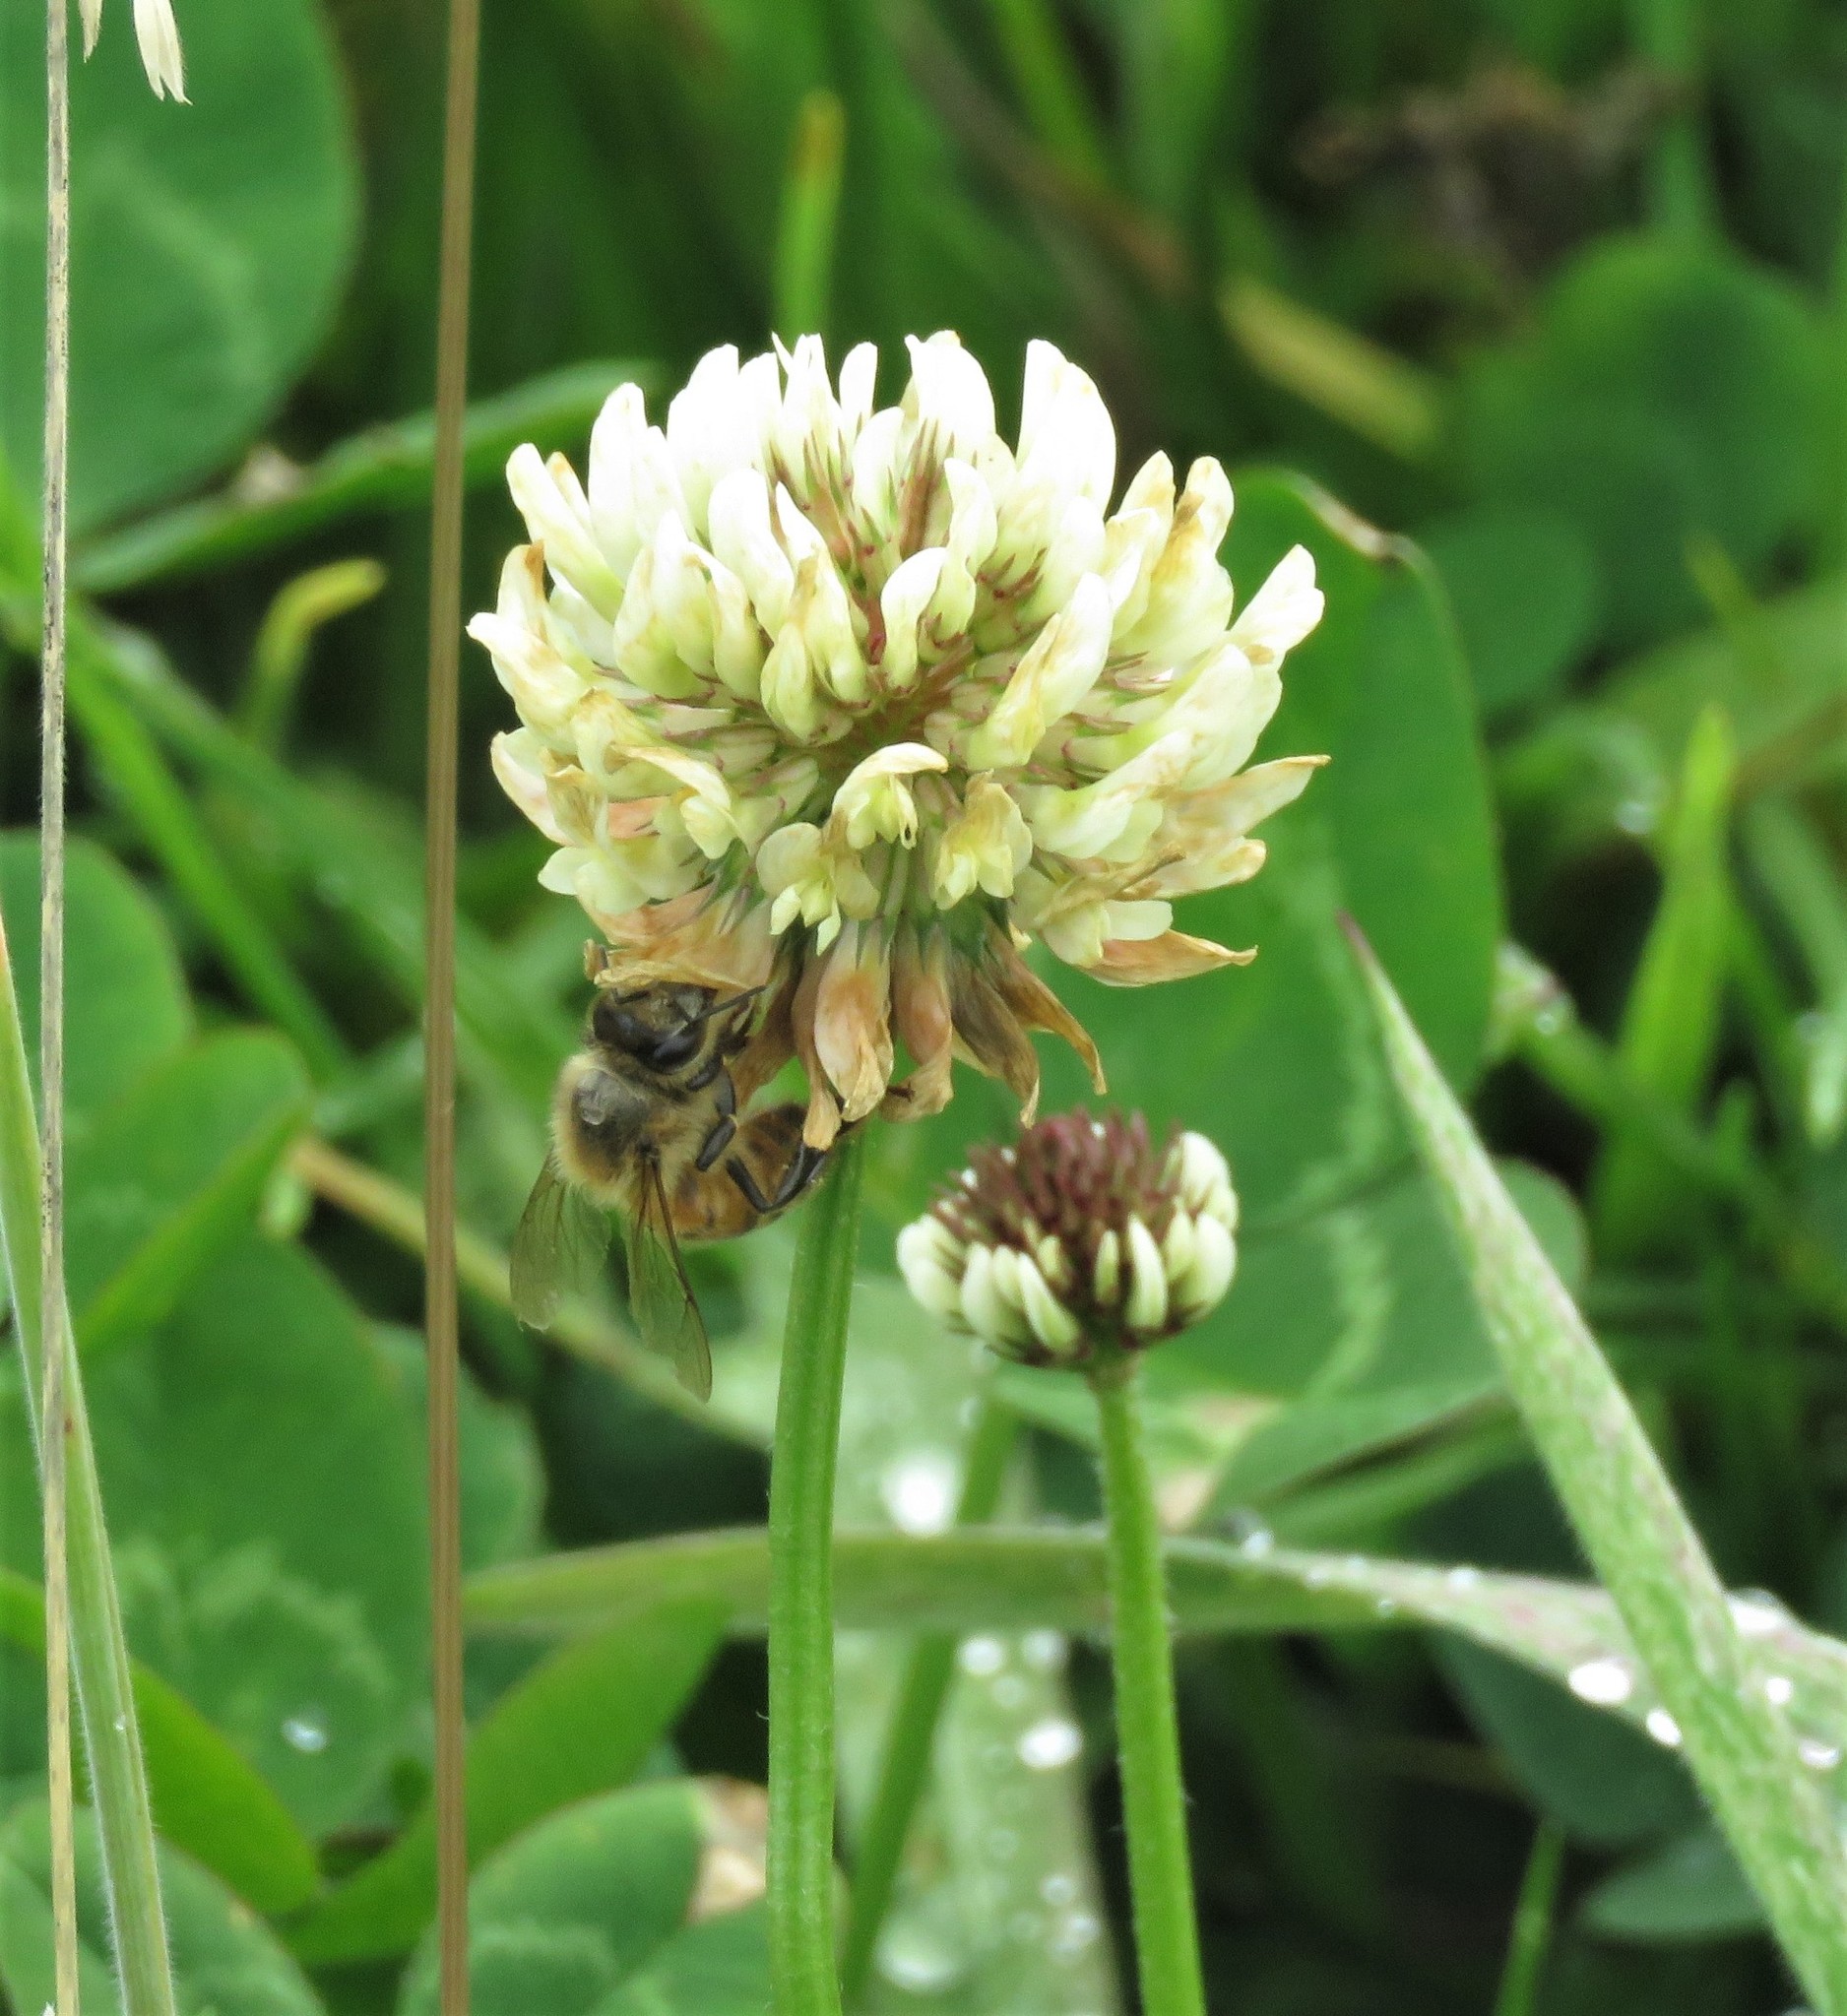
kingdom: Plantae
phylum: Tracheophyta
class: Magnoliopsida
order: Fabales
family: Fabaceae
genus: Trifolium
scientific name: Trifolium repens
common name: White clover
